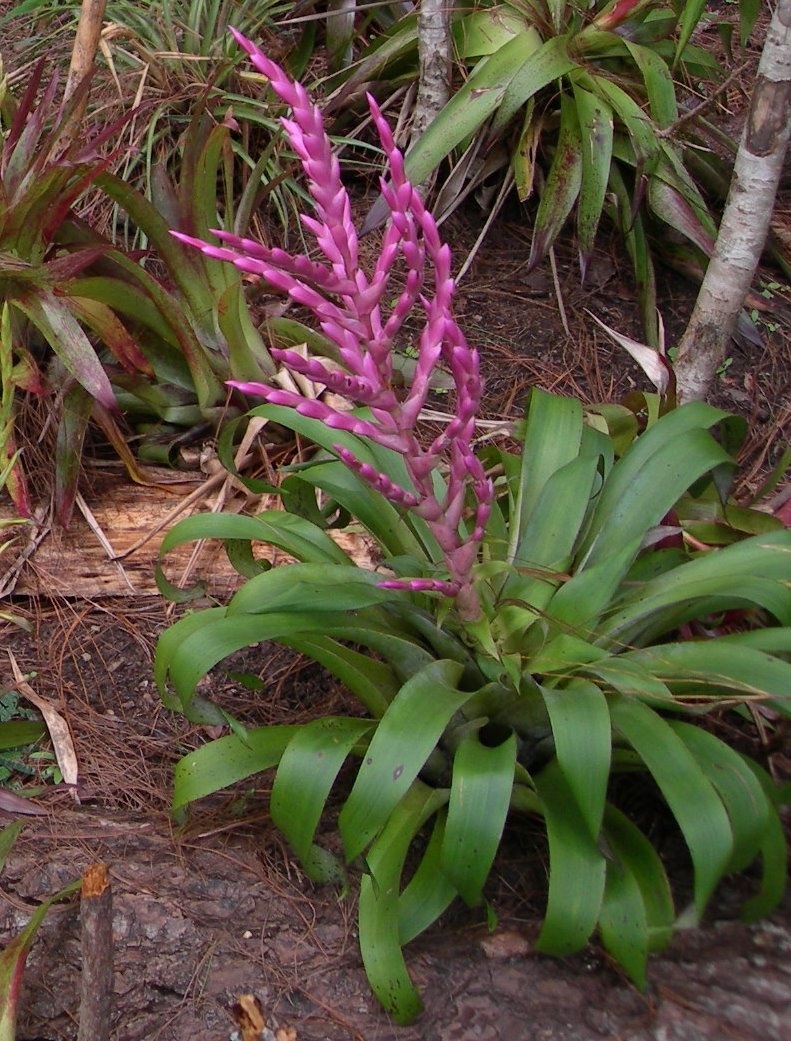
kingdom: Plantae
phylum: Tracheophyta
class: Liliopsida
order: Poales
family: Bromeliaceae
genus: Tillandsia
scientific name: Tillandsia lucida
